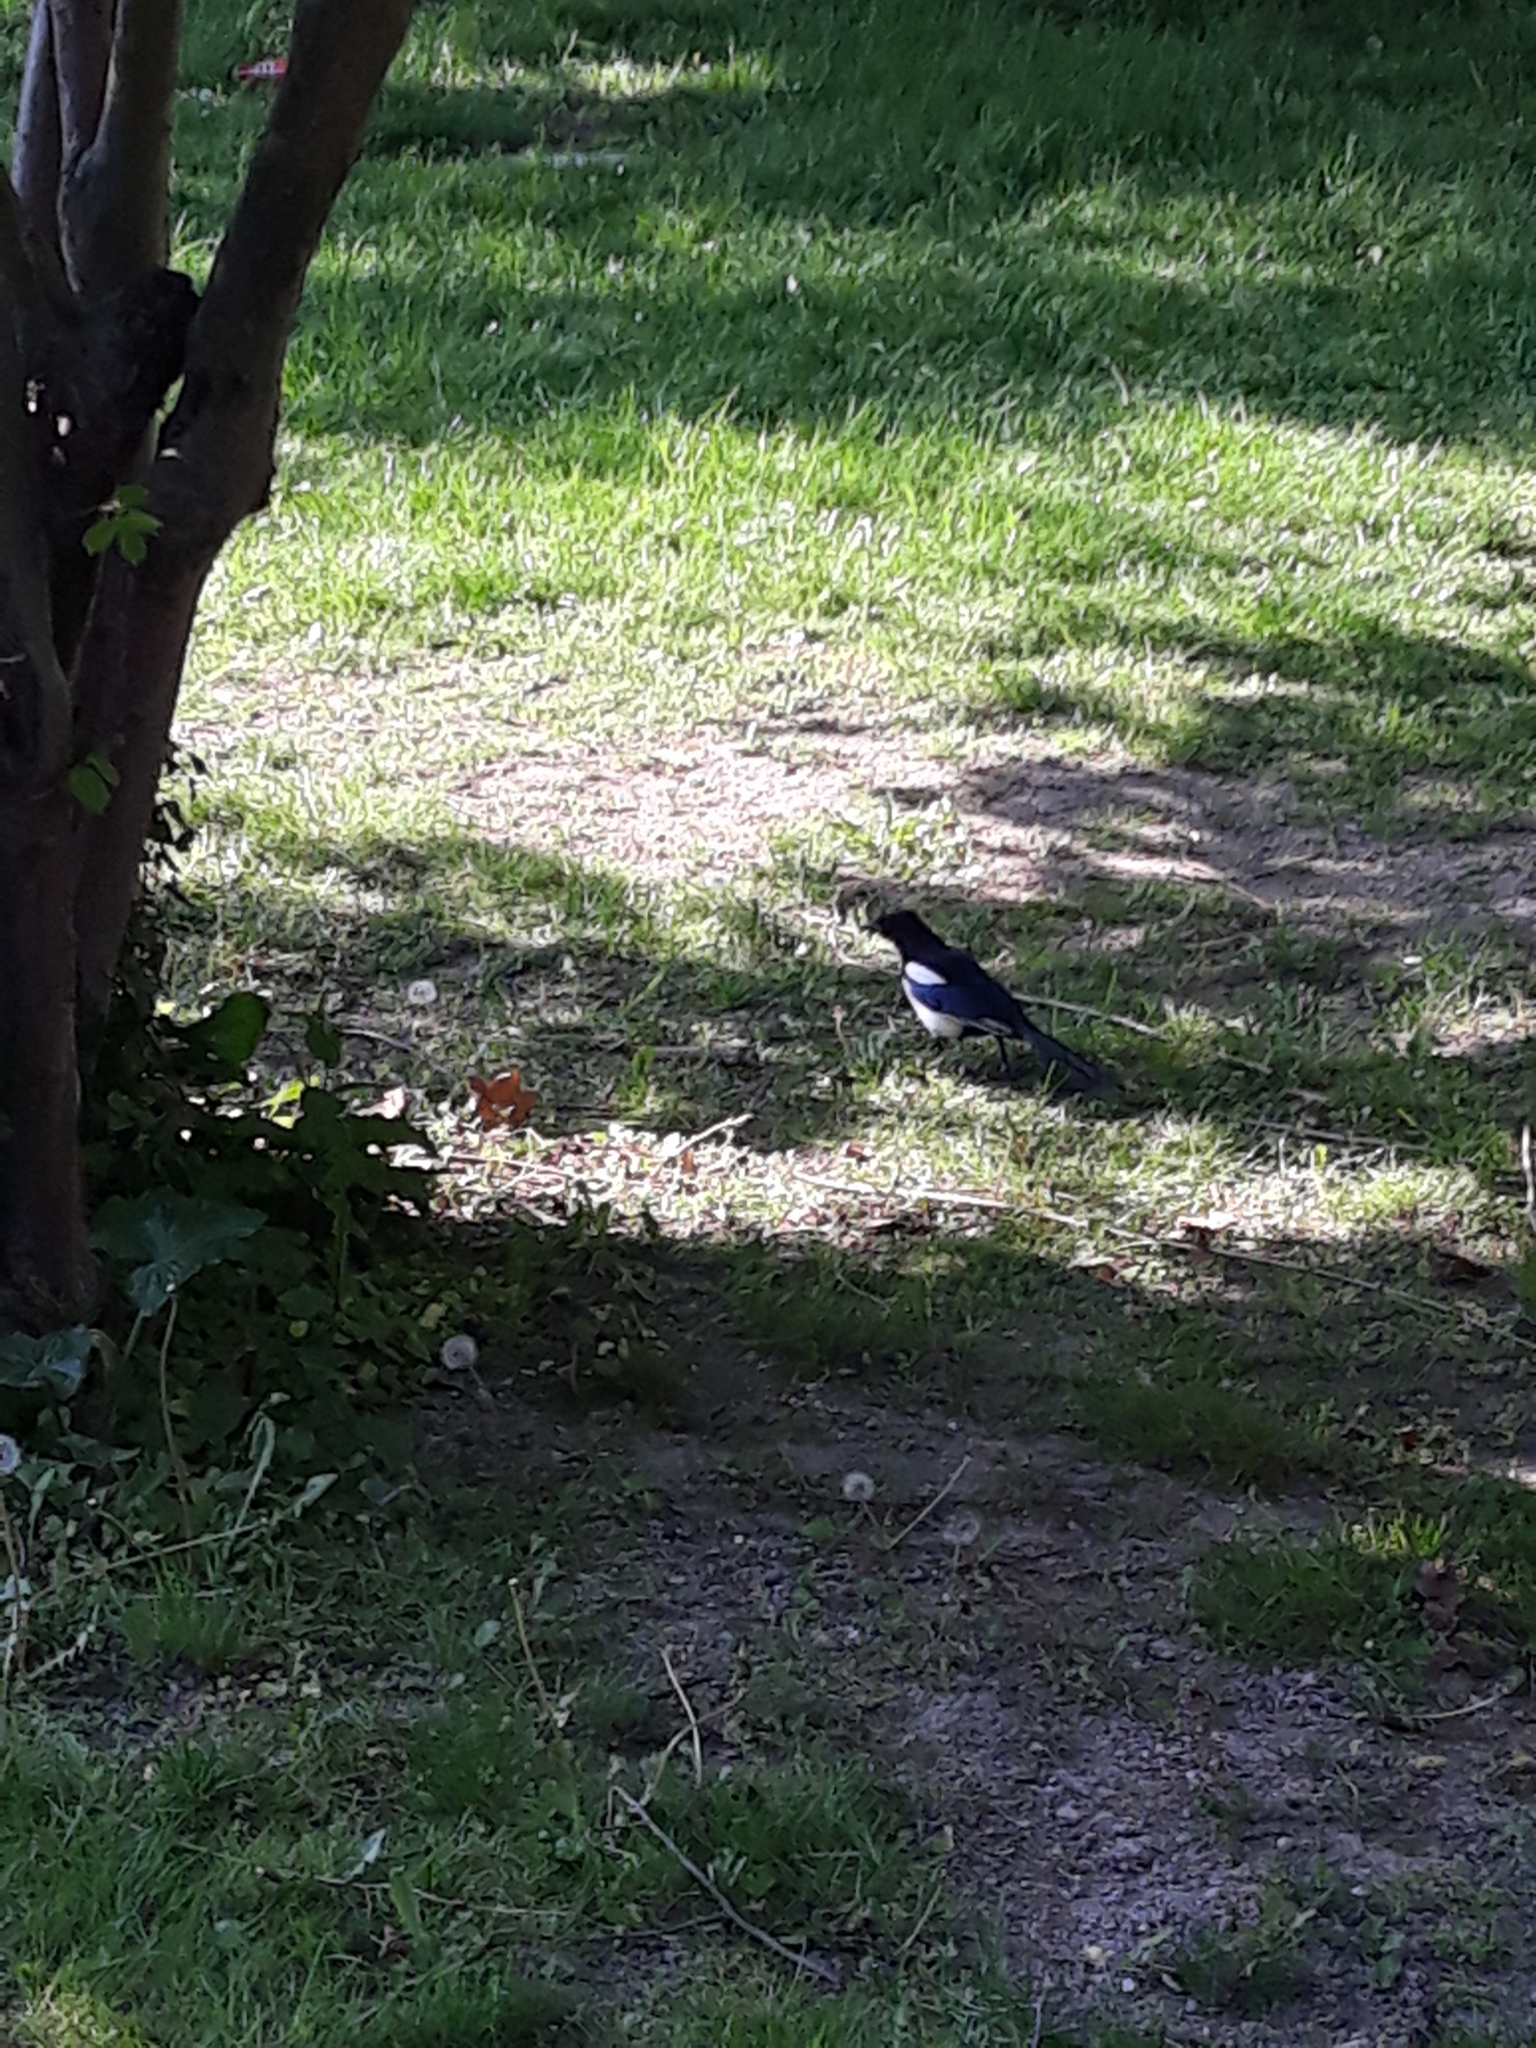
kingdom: Animalia
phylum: Chordata
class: Aves
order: Passeriformes
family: Corvidae
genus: Pica
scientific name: Pica pica
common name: Eurasian magpie
